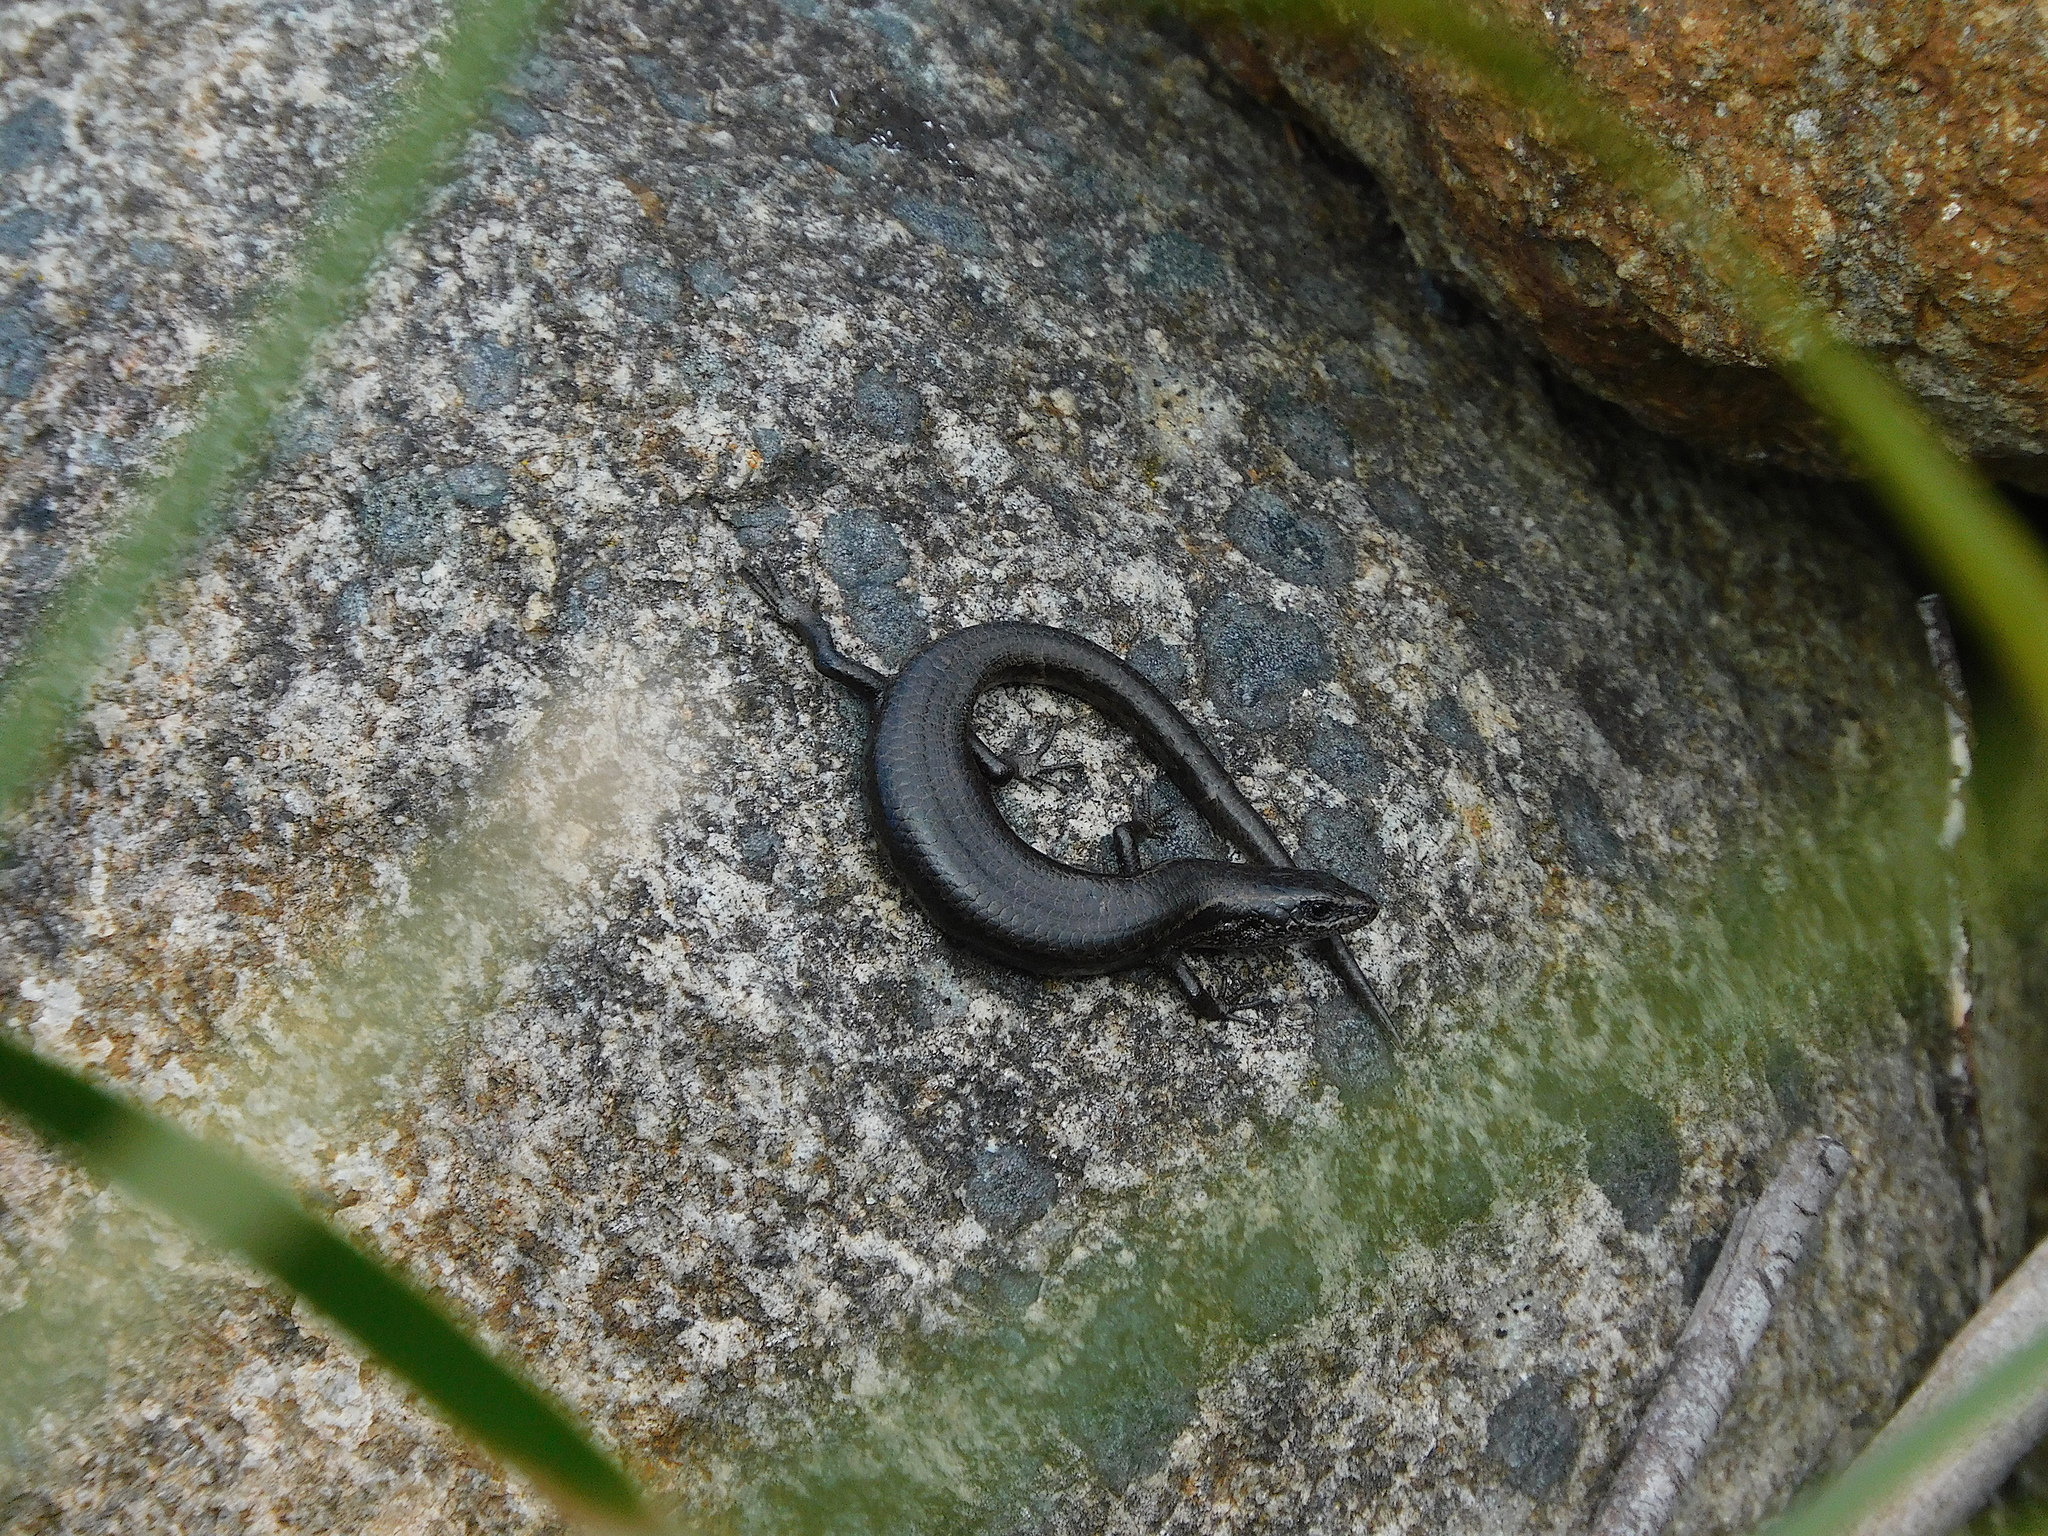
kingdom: Animalia
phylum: Chordata
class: Squamata
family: Scincidae
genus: Carinascincus
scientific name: Carinascincus metallicus
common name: Metallic cool-skink
